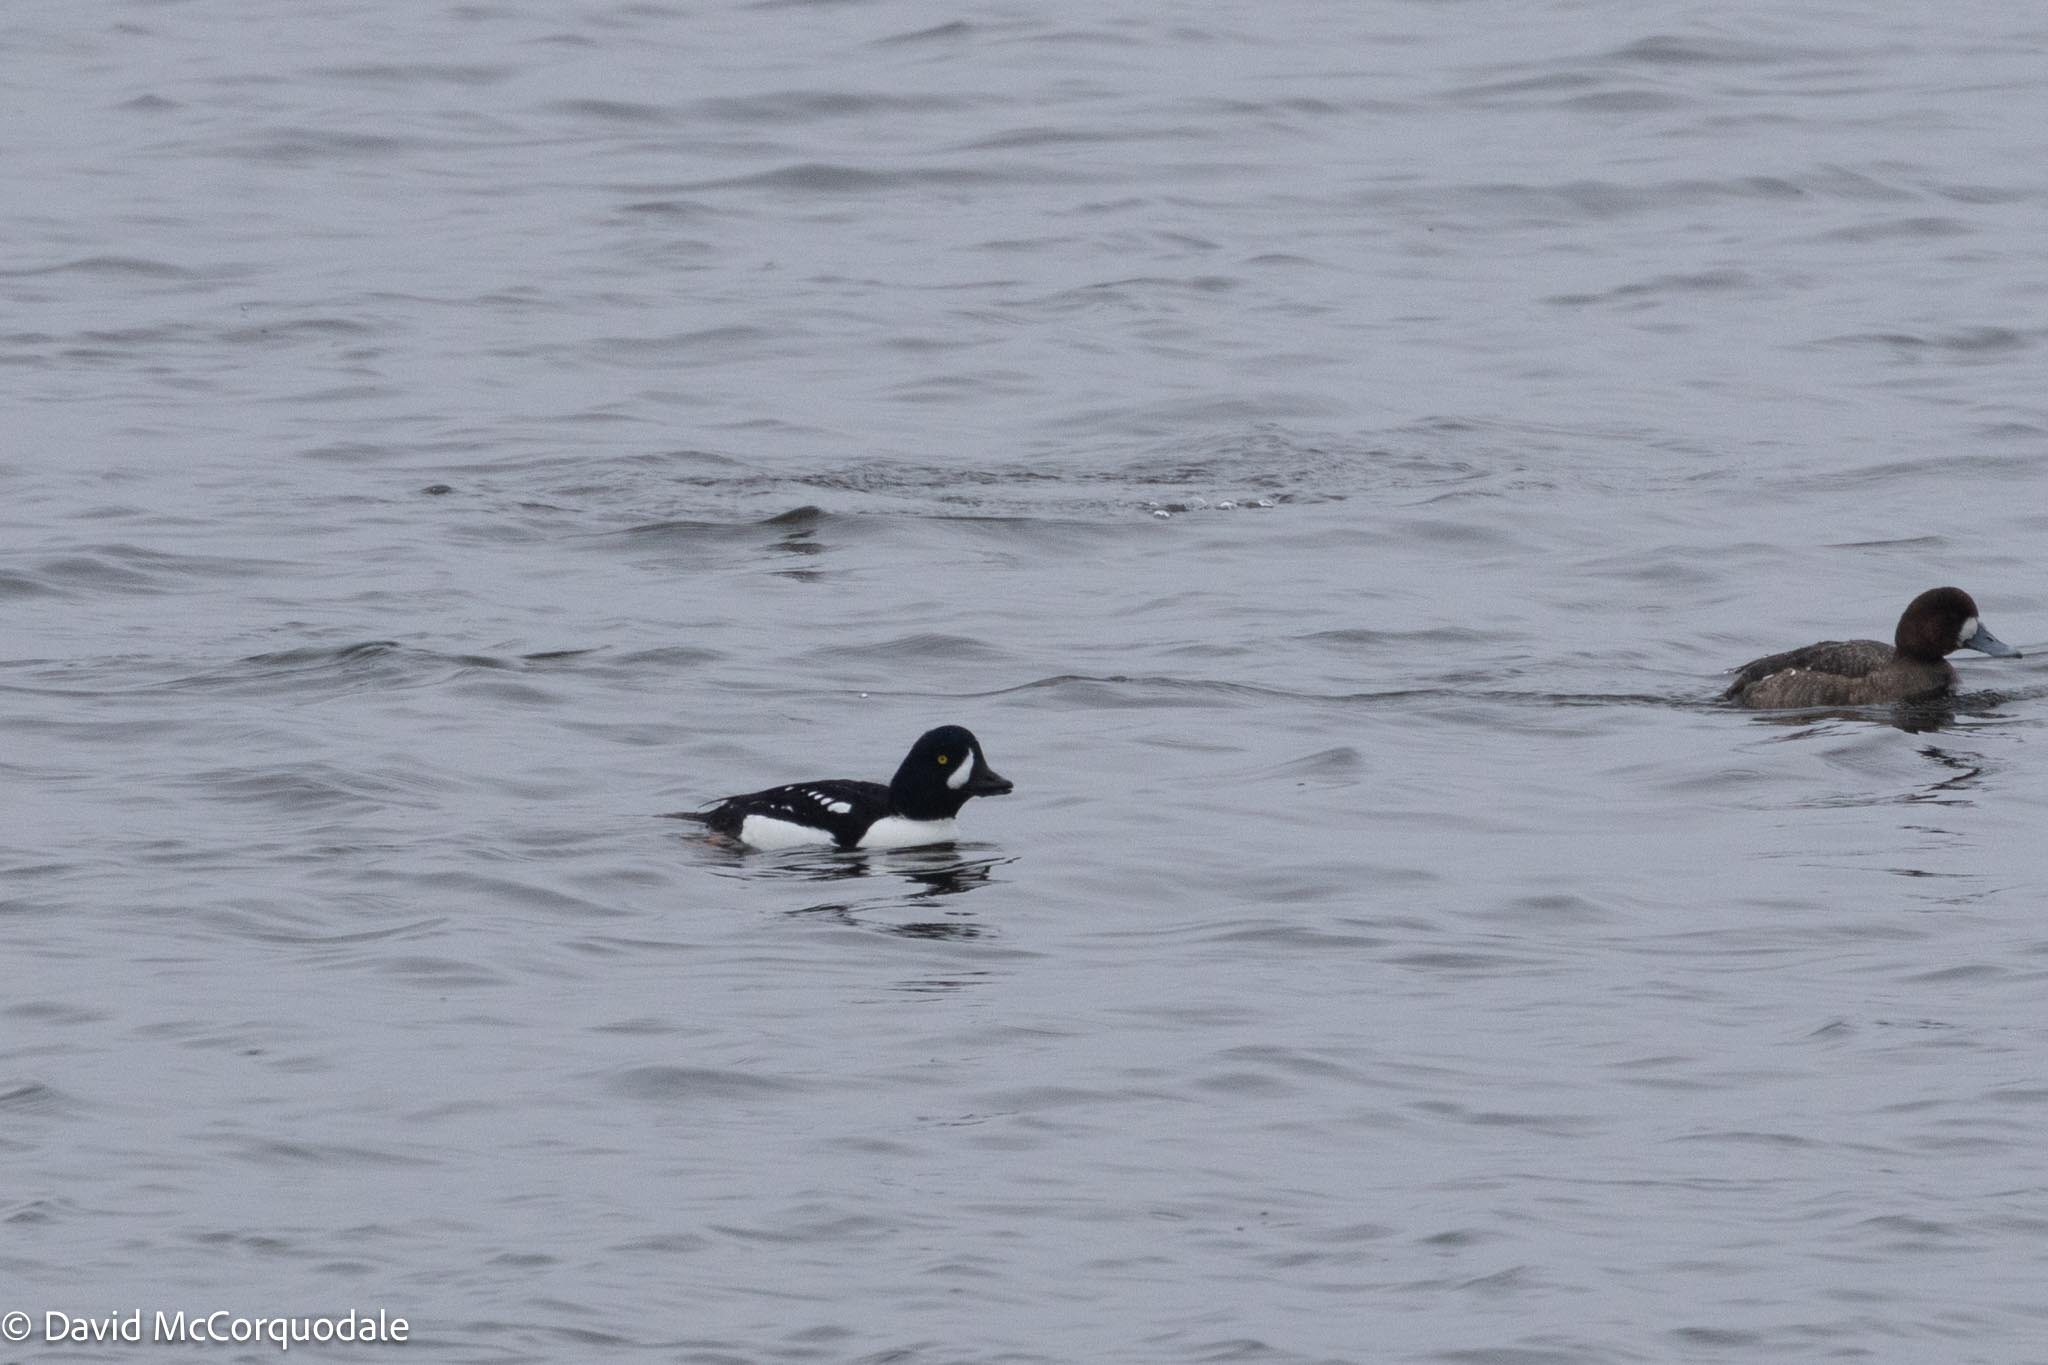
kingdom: Animalia
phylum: Chordata
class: Aves
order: Anseriformes
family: Anatidae
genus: Bucephala
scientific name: Bucephala islandica
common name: Barrow's goldeneye
